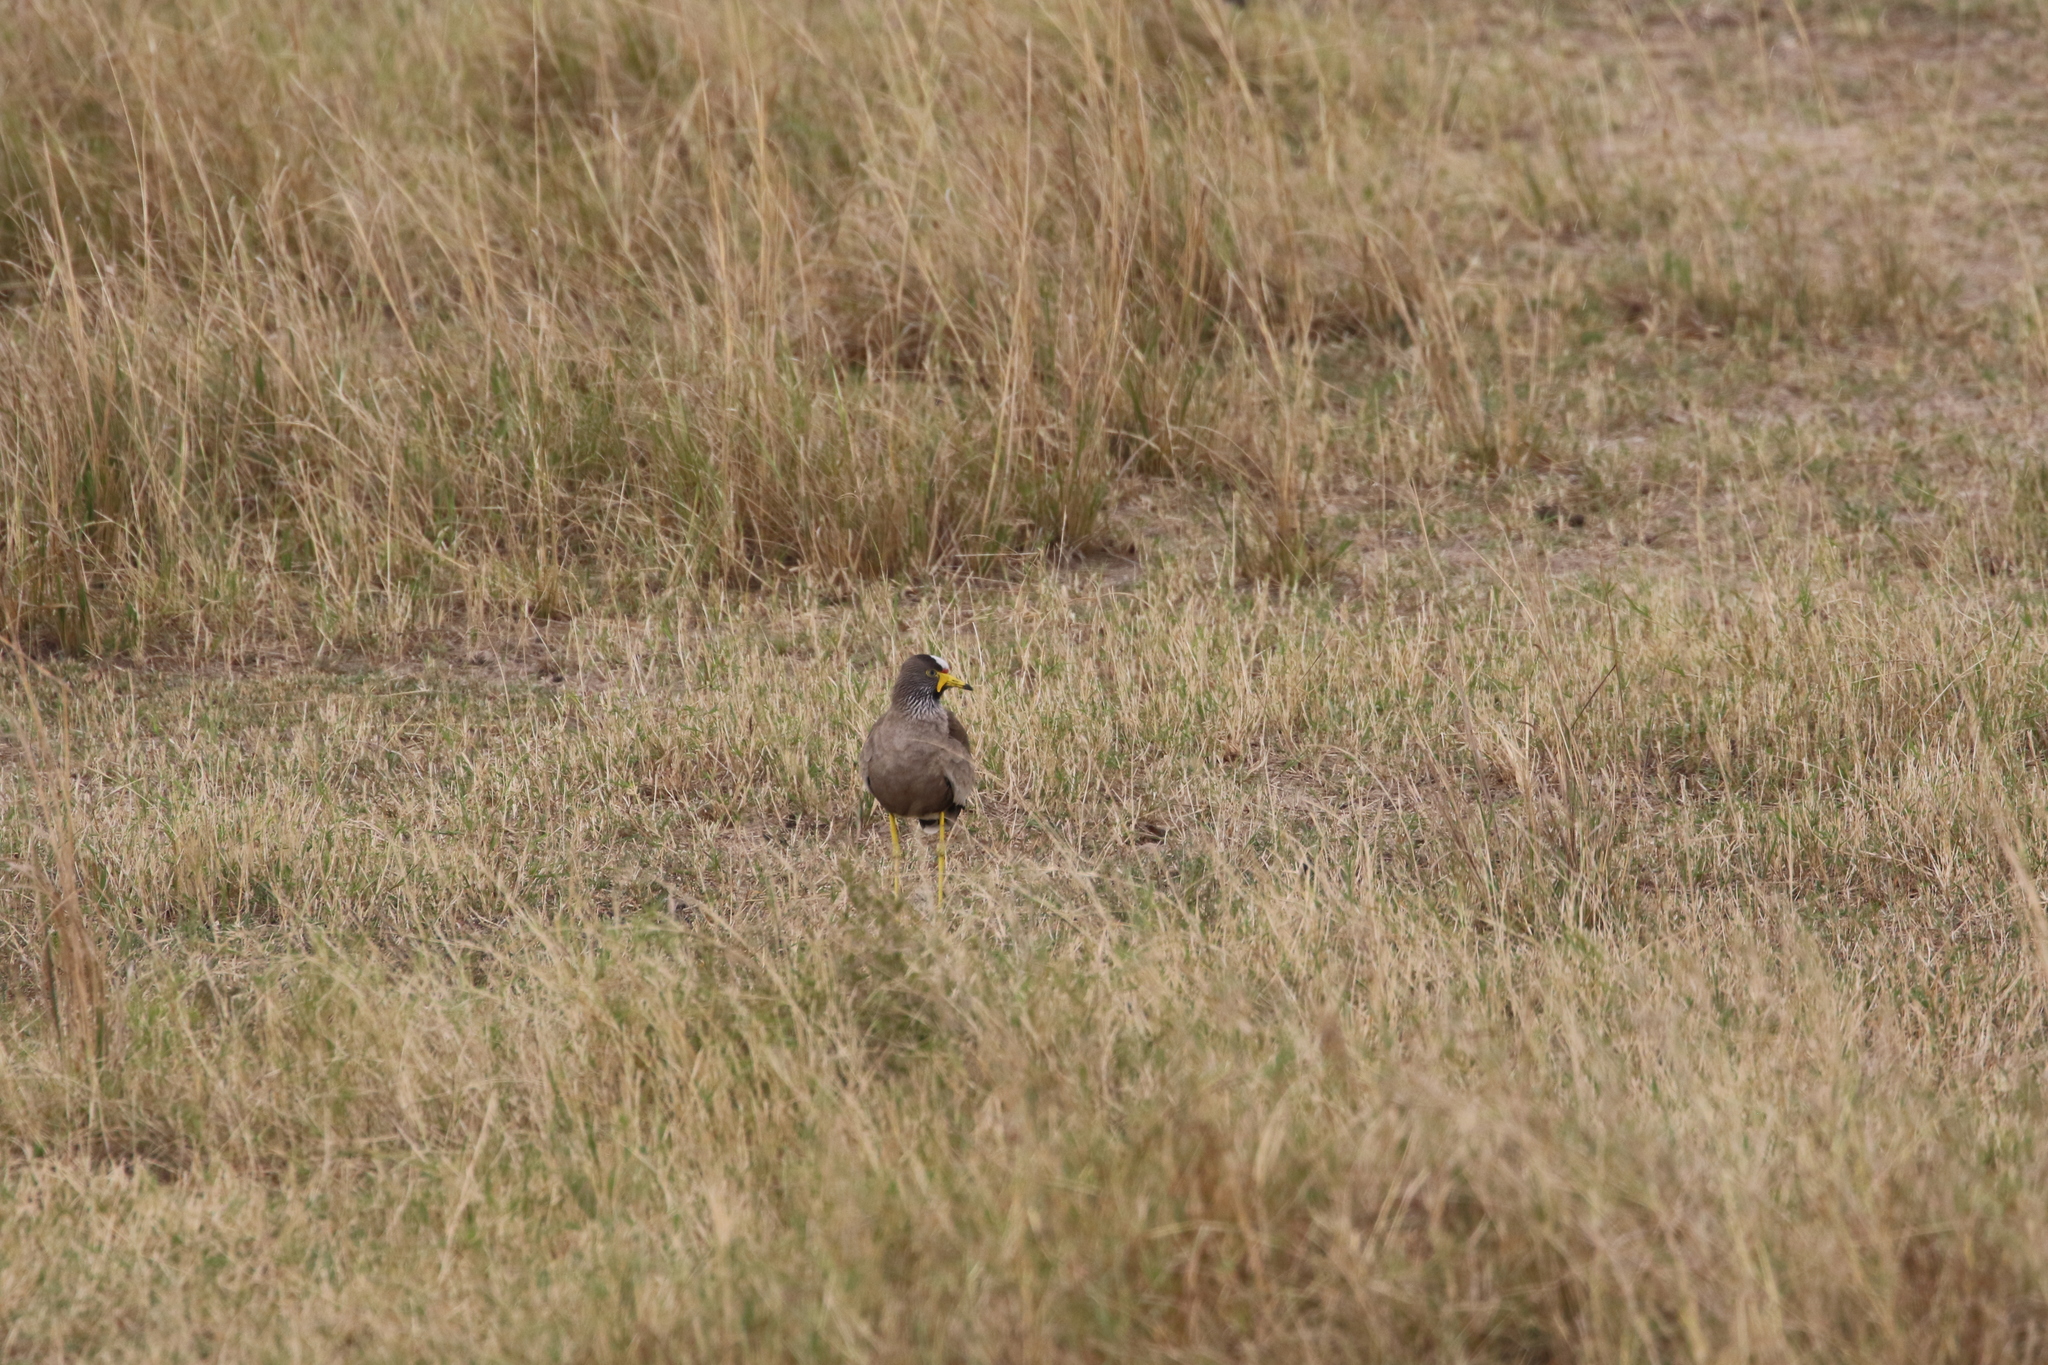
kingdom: Animalia
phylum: Chordata
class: Aves
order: Charadriiformes
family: Charadriidae
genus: Vanellus
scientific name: Vanellus senegallus
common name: African wattled lapwing
